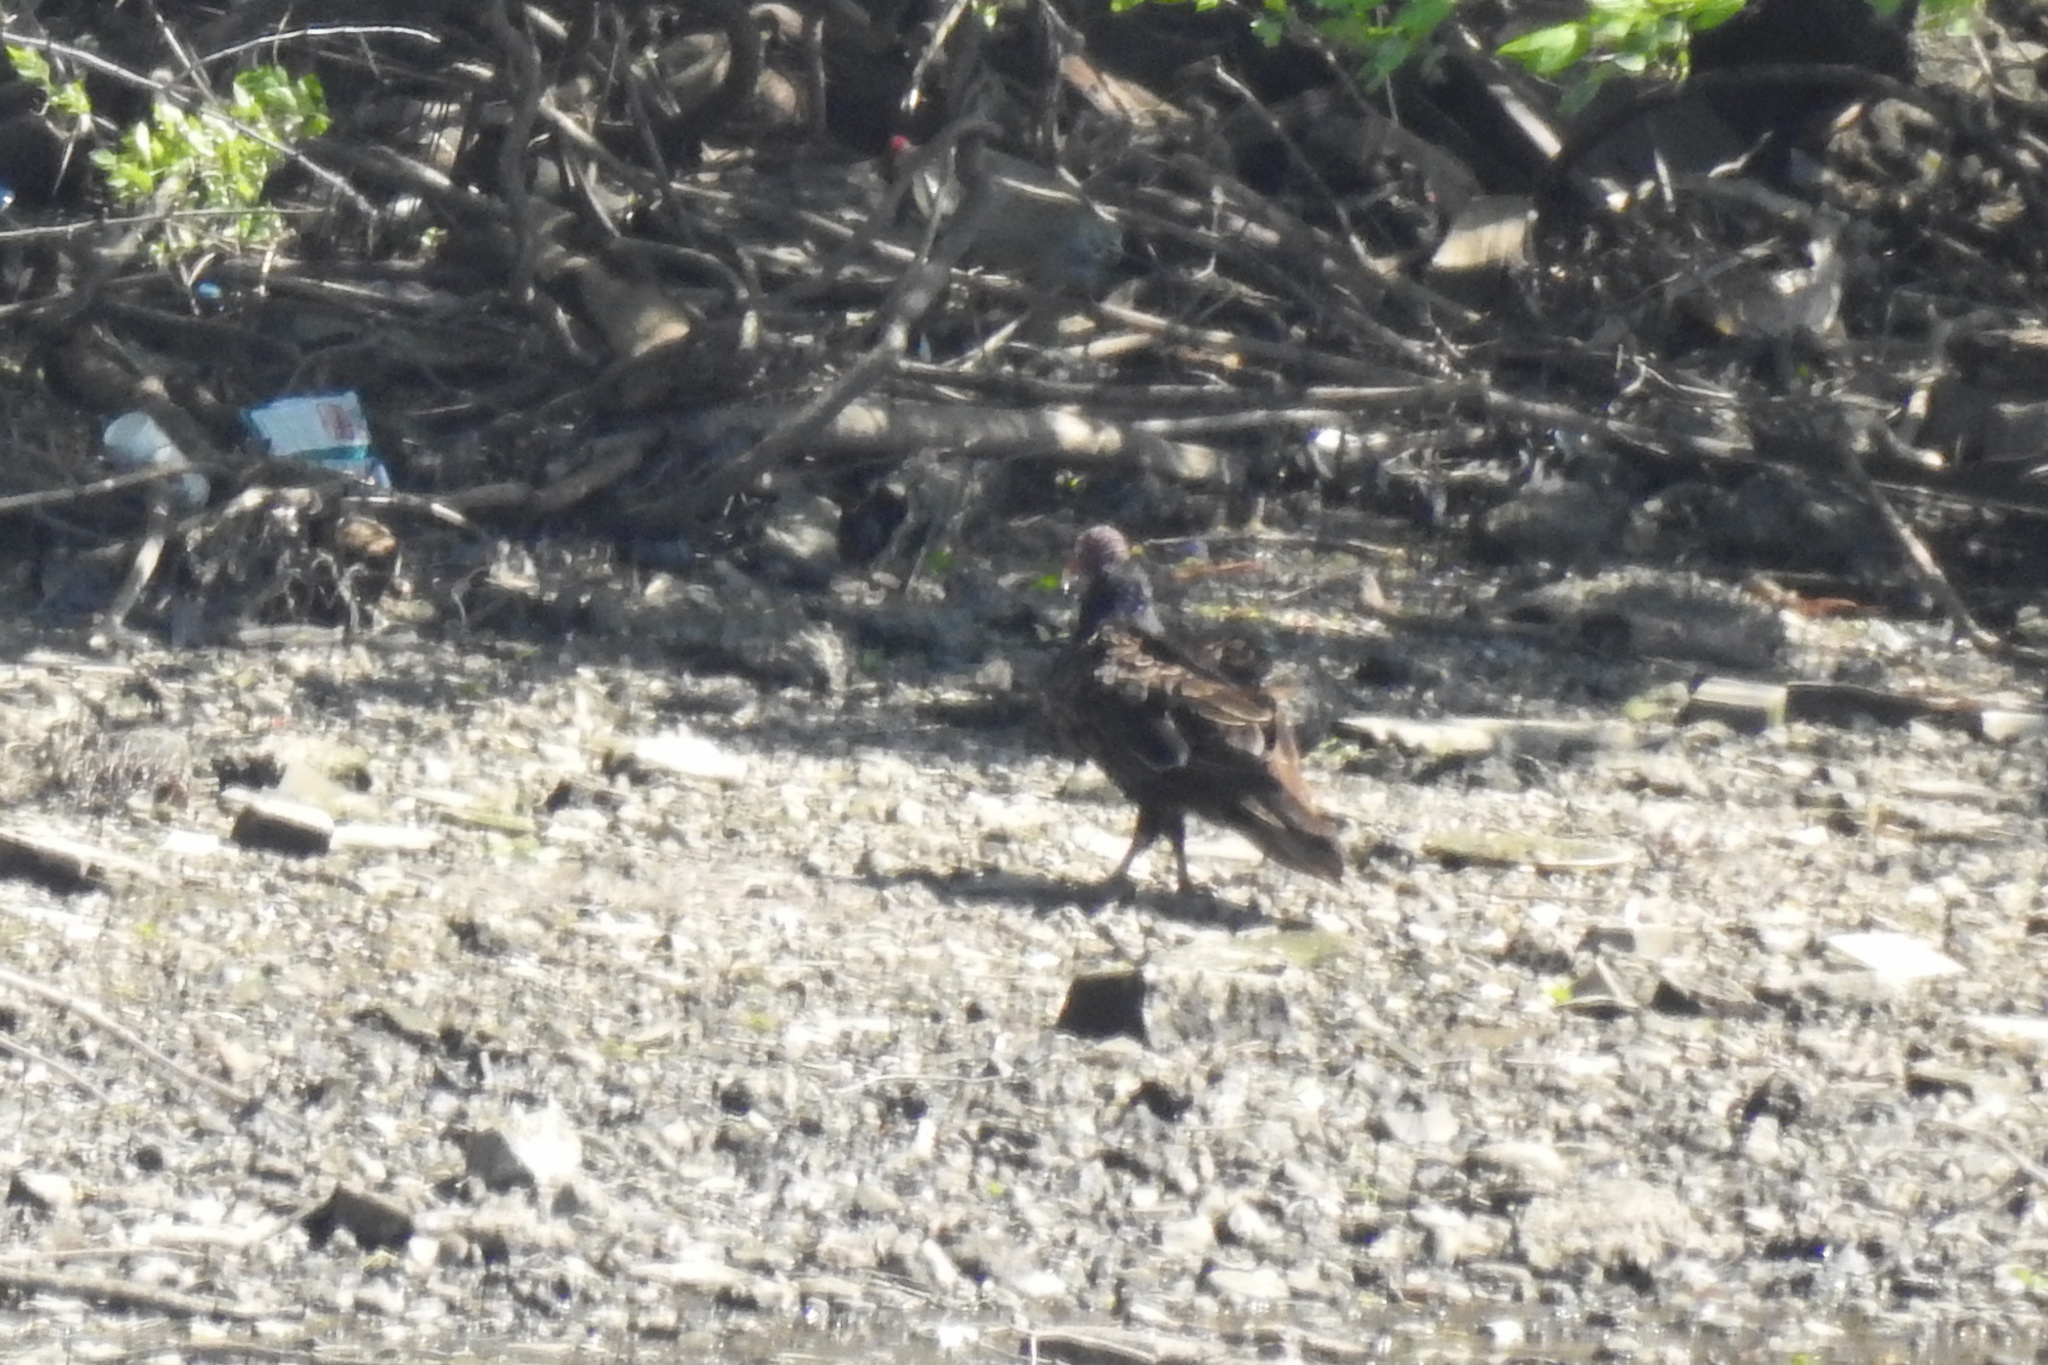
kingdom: Animalia
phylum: Chordata
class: Aves
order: Accipitriformes
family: Cathartidae
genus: Cathartes
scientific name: Cathartes aura
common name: Turkey vulture
